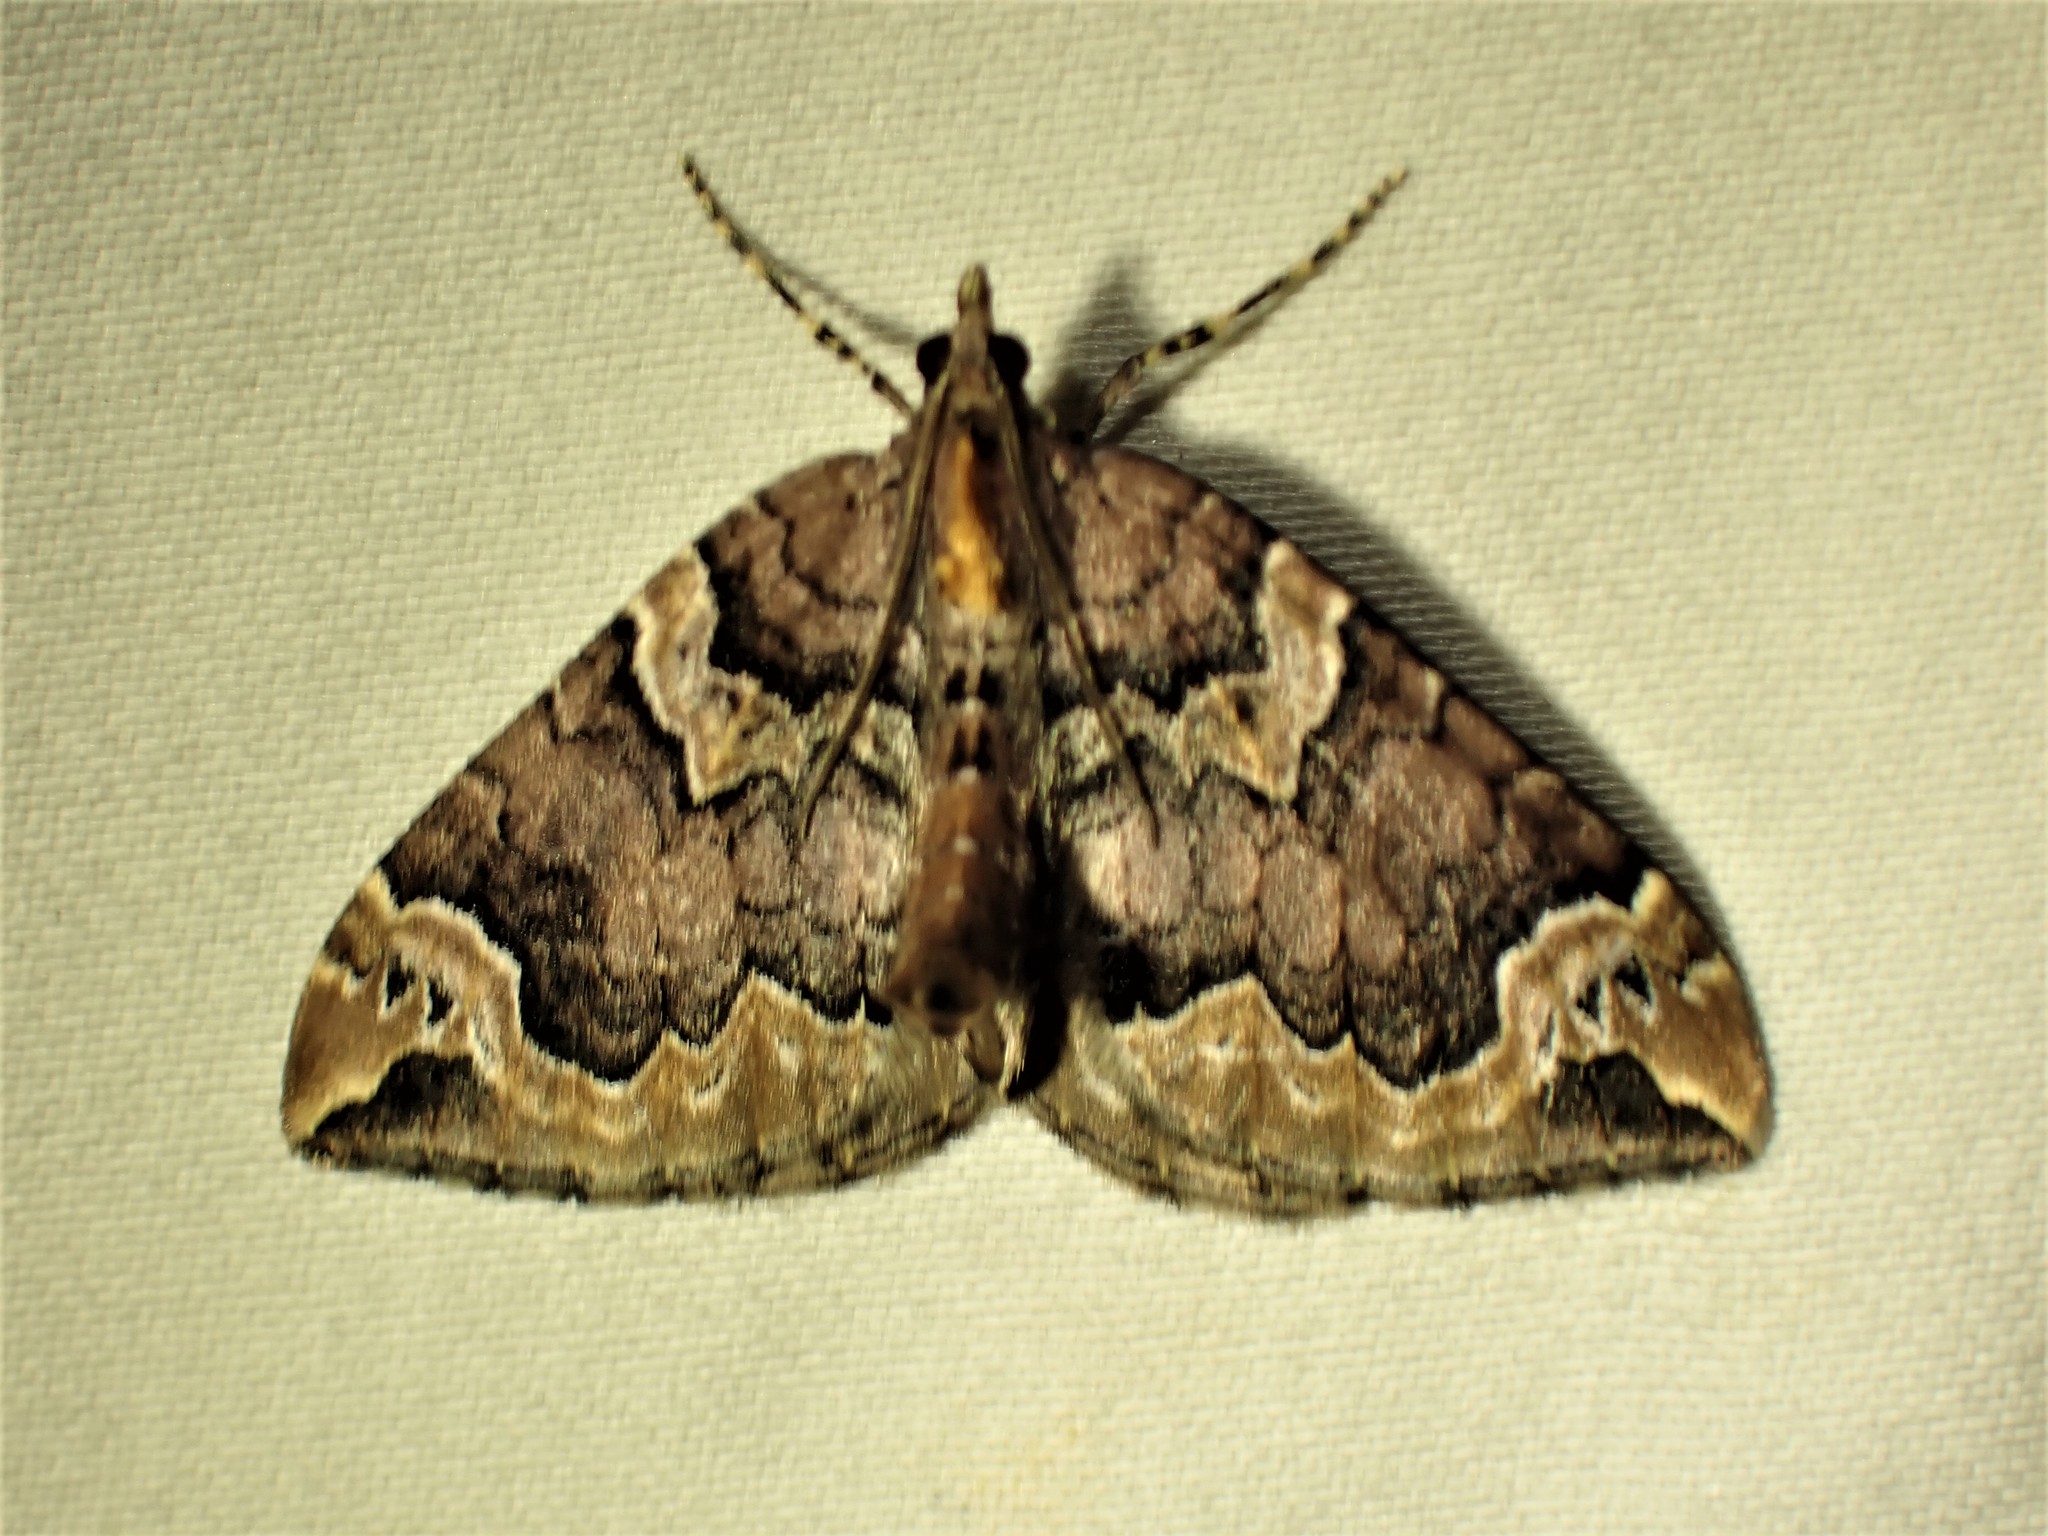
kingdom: Animalia
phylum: Arthropoda
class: Insecta
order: Lepidoptera
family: Geometridae
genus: Eulithis
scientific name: Eulithis serrataria
